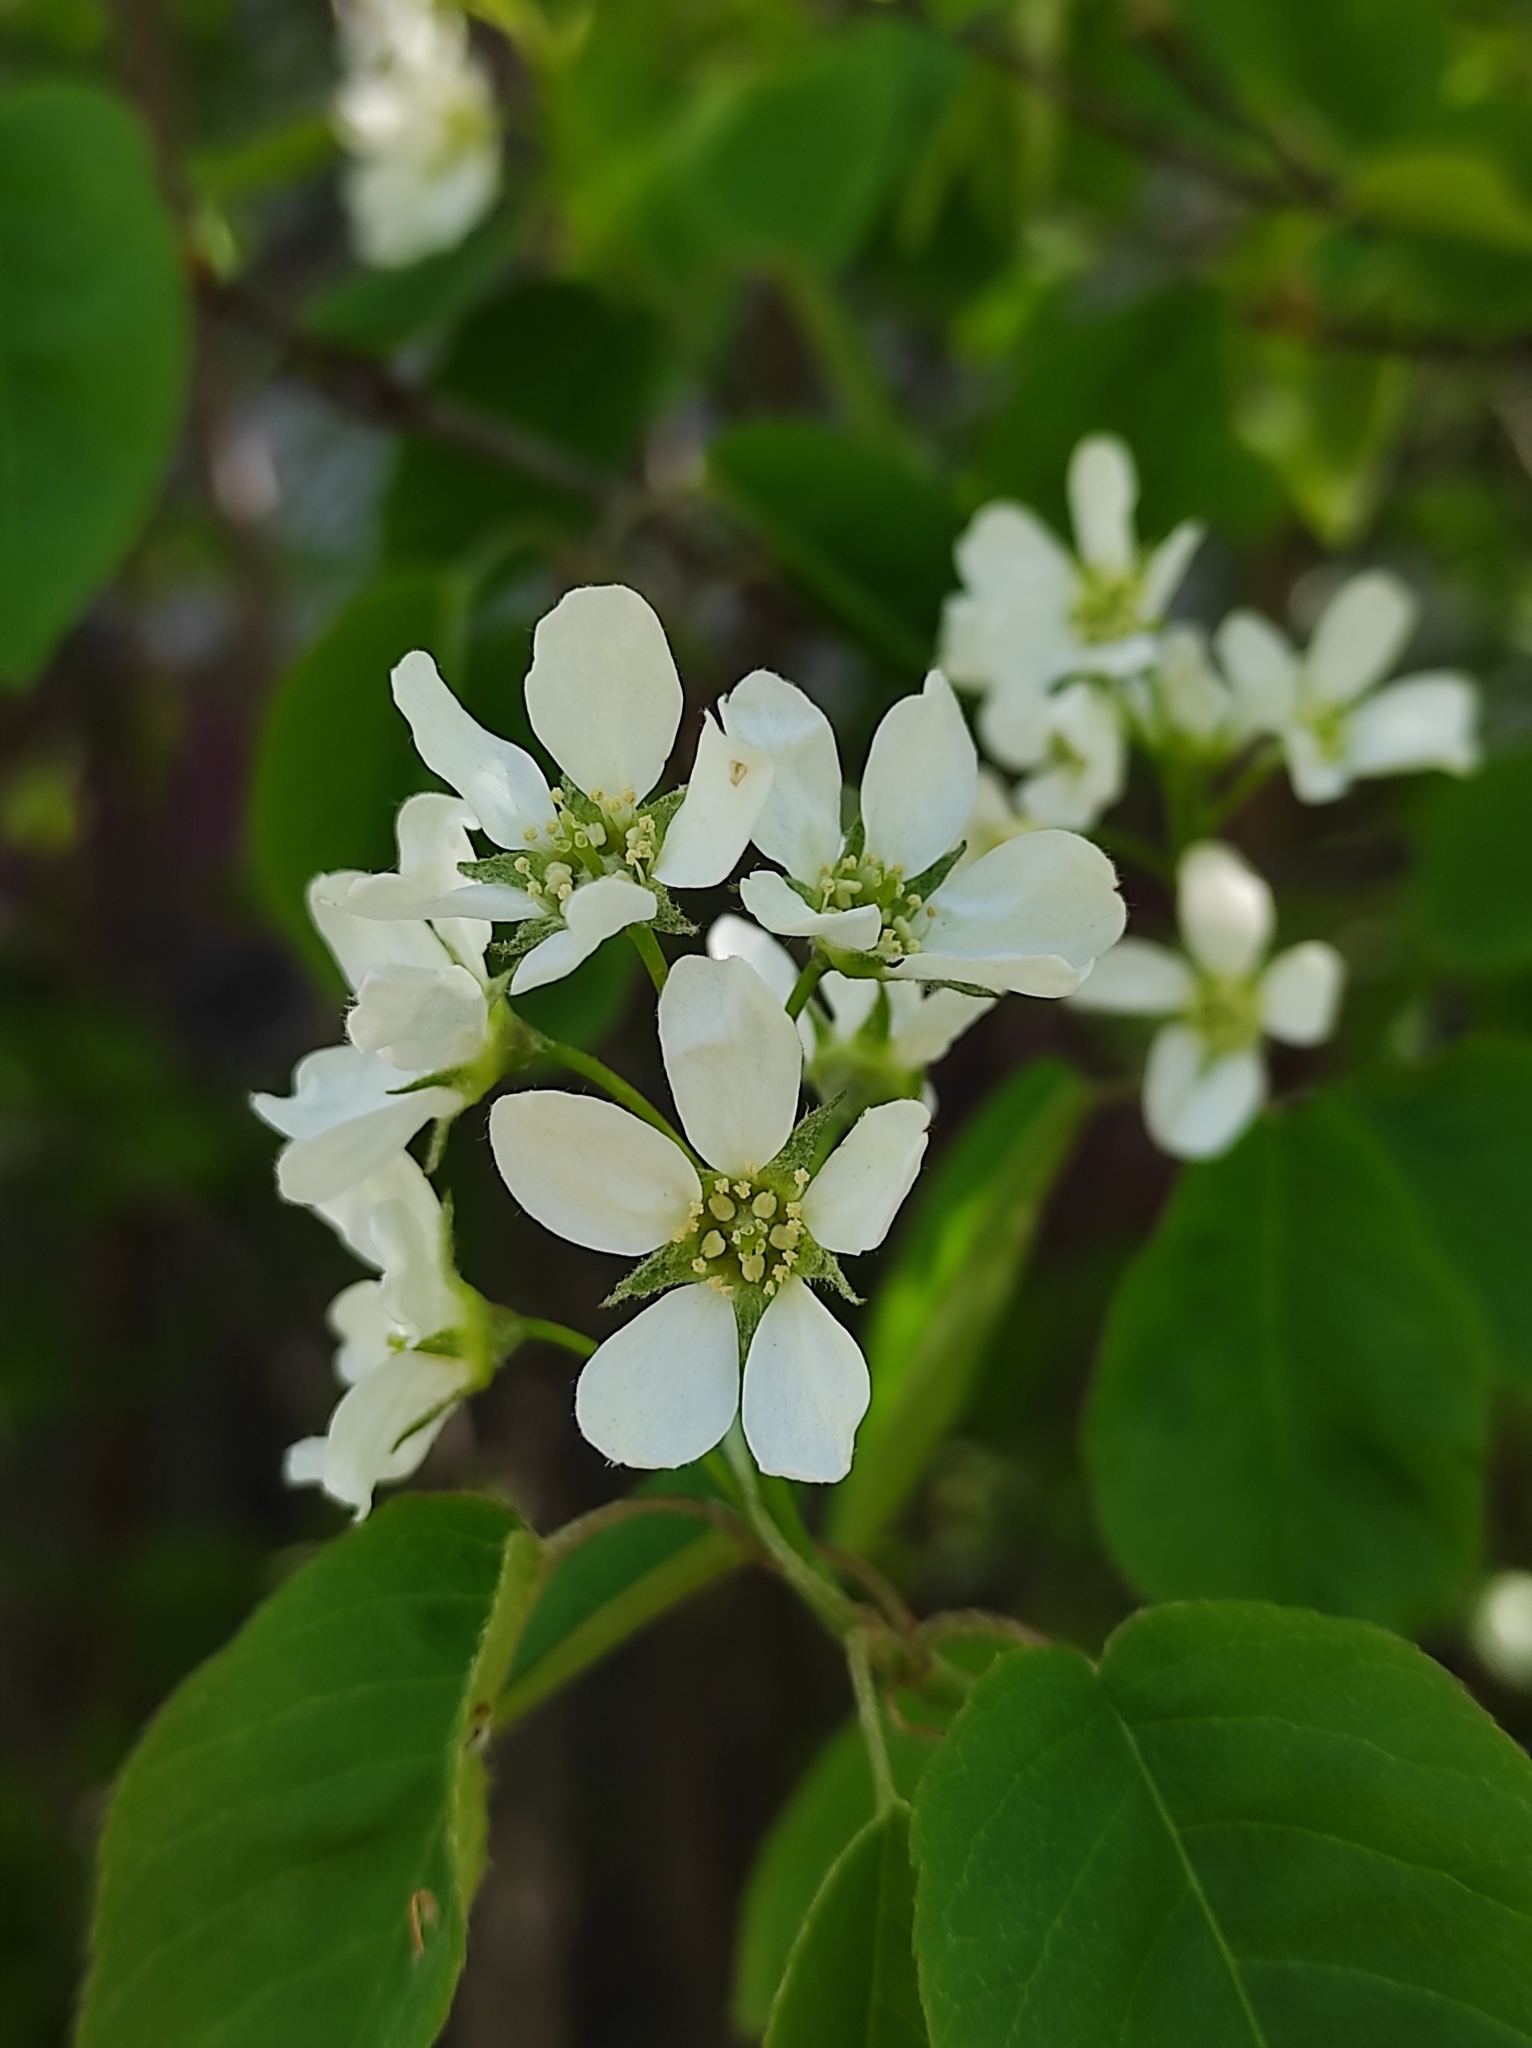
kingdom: Plantae
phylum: Tracheophyta
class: Magnoliopsida
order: Rosales
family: Rosaceae
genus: Amelanchier
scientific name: Amelanchier
